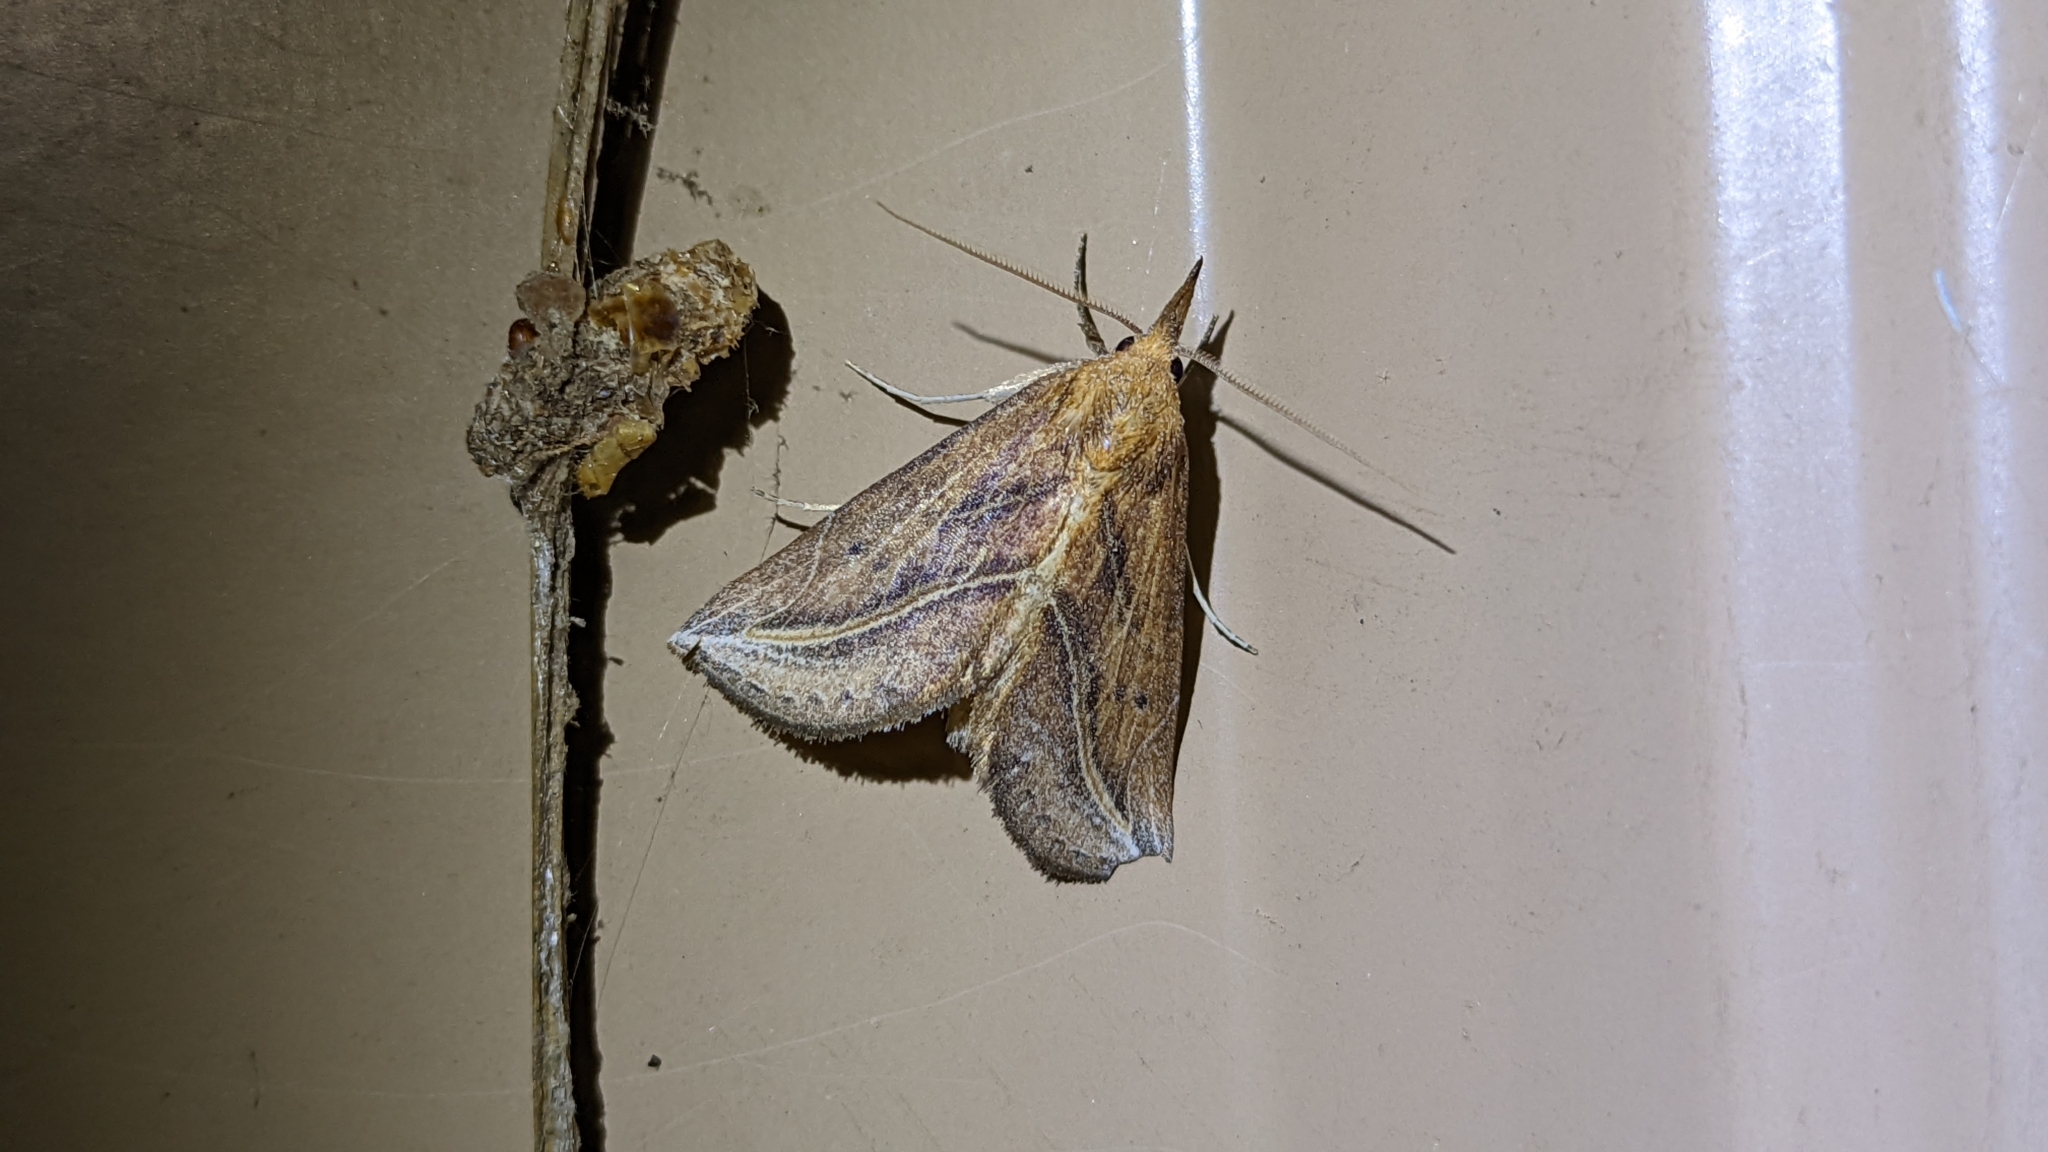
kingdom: Animalia
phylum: Arthropoda
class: Insecta
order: Lepidoptera
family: Erebidae
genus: Phyprosopus
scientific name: Phyprosopus callitrichoides
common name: Curved-lined owlet
